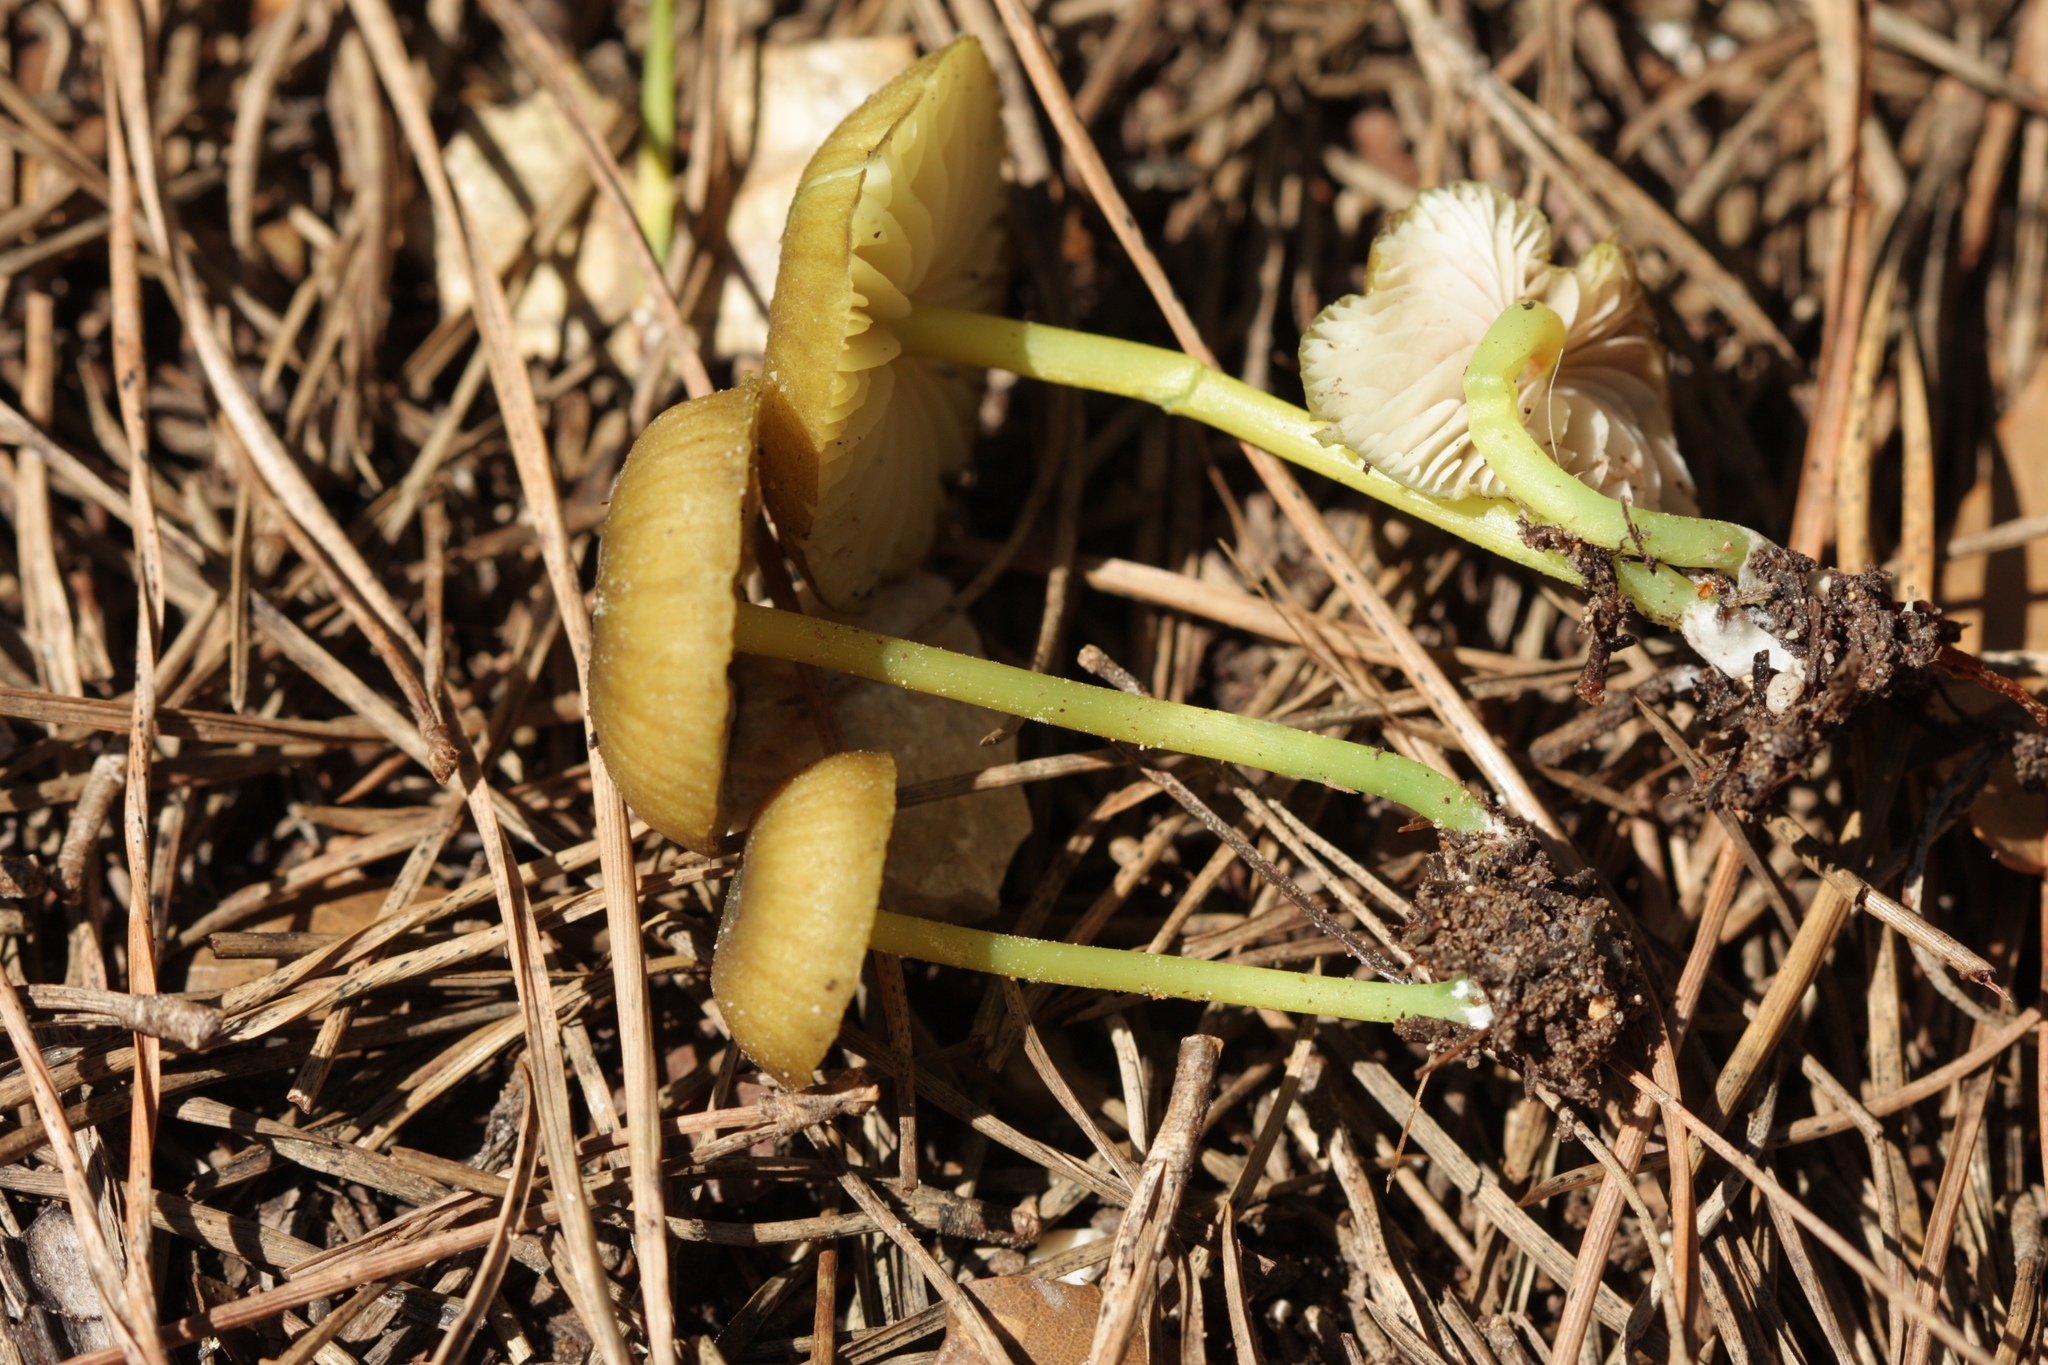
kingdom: Fungi
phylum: Basidiomycota
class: Agaricomycetes
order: Agaricales
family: Entolomataceae
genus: Entoloma
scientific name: Entoloma incanum
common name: Mousepee pinkgill
